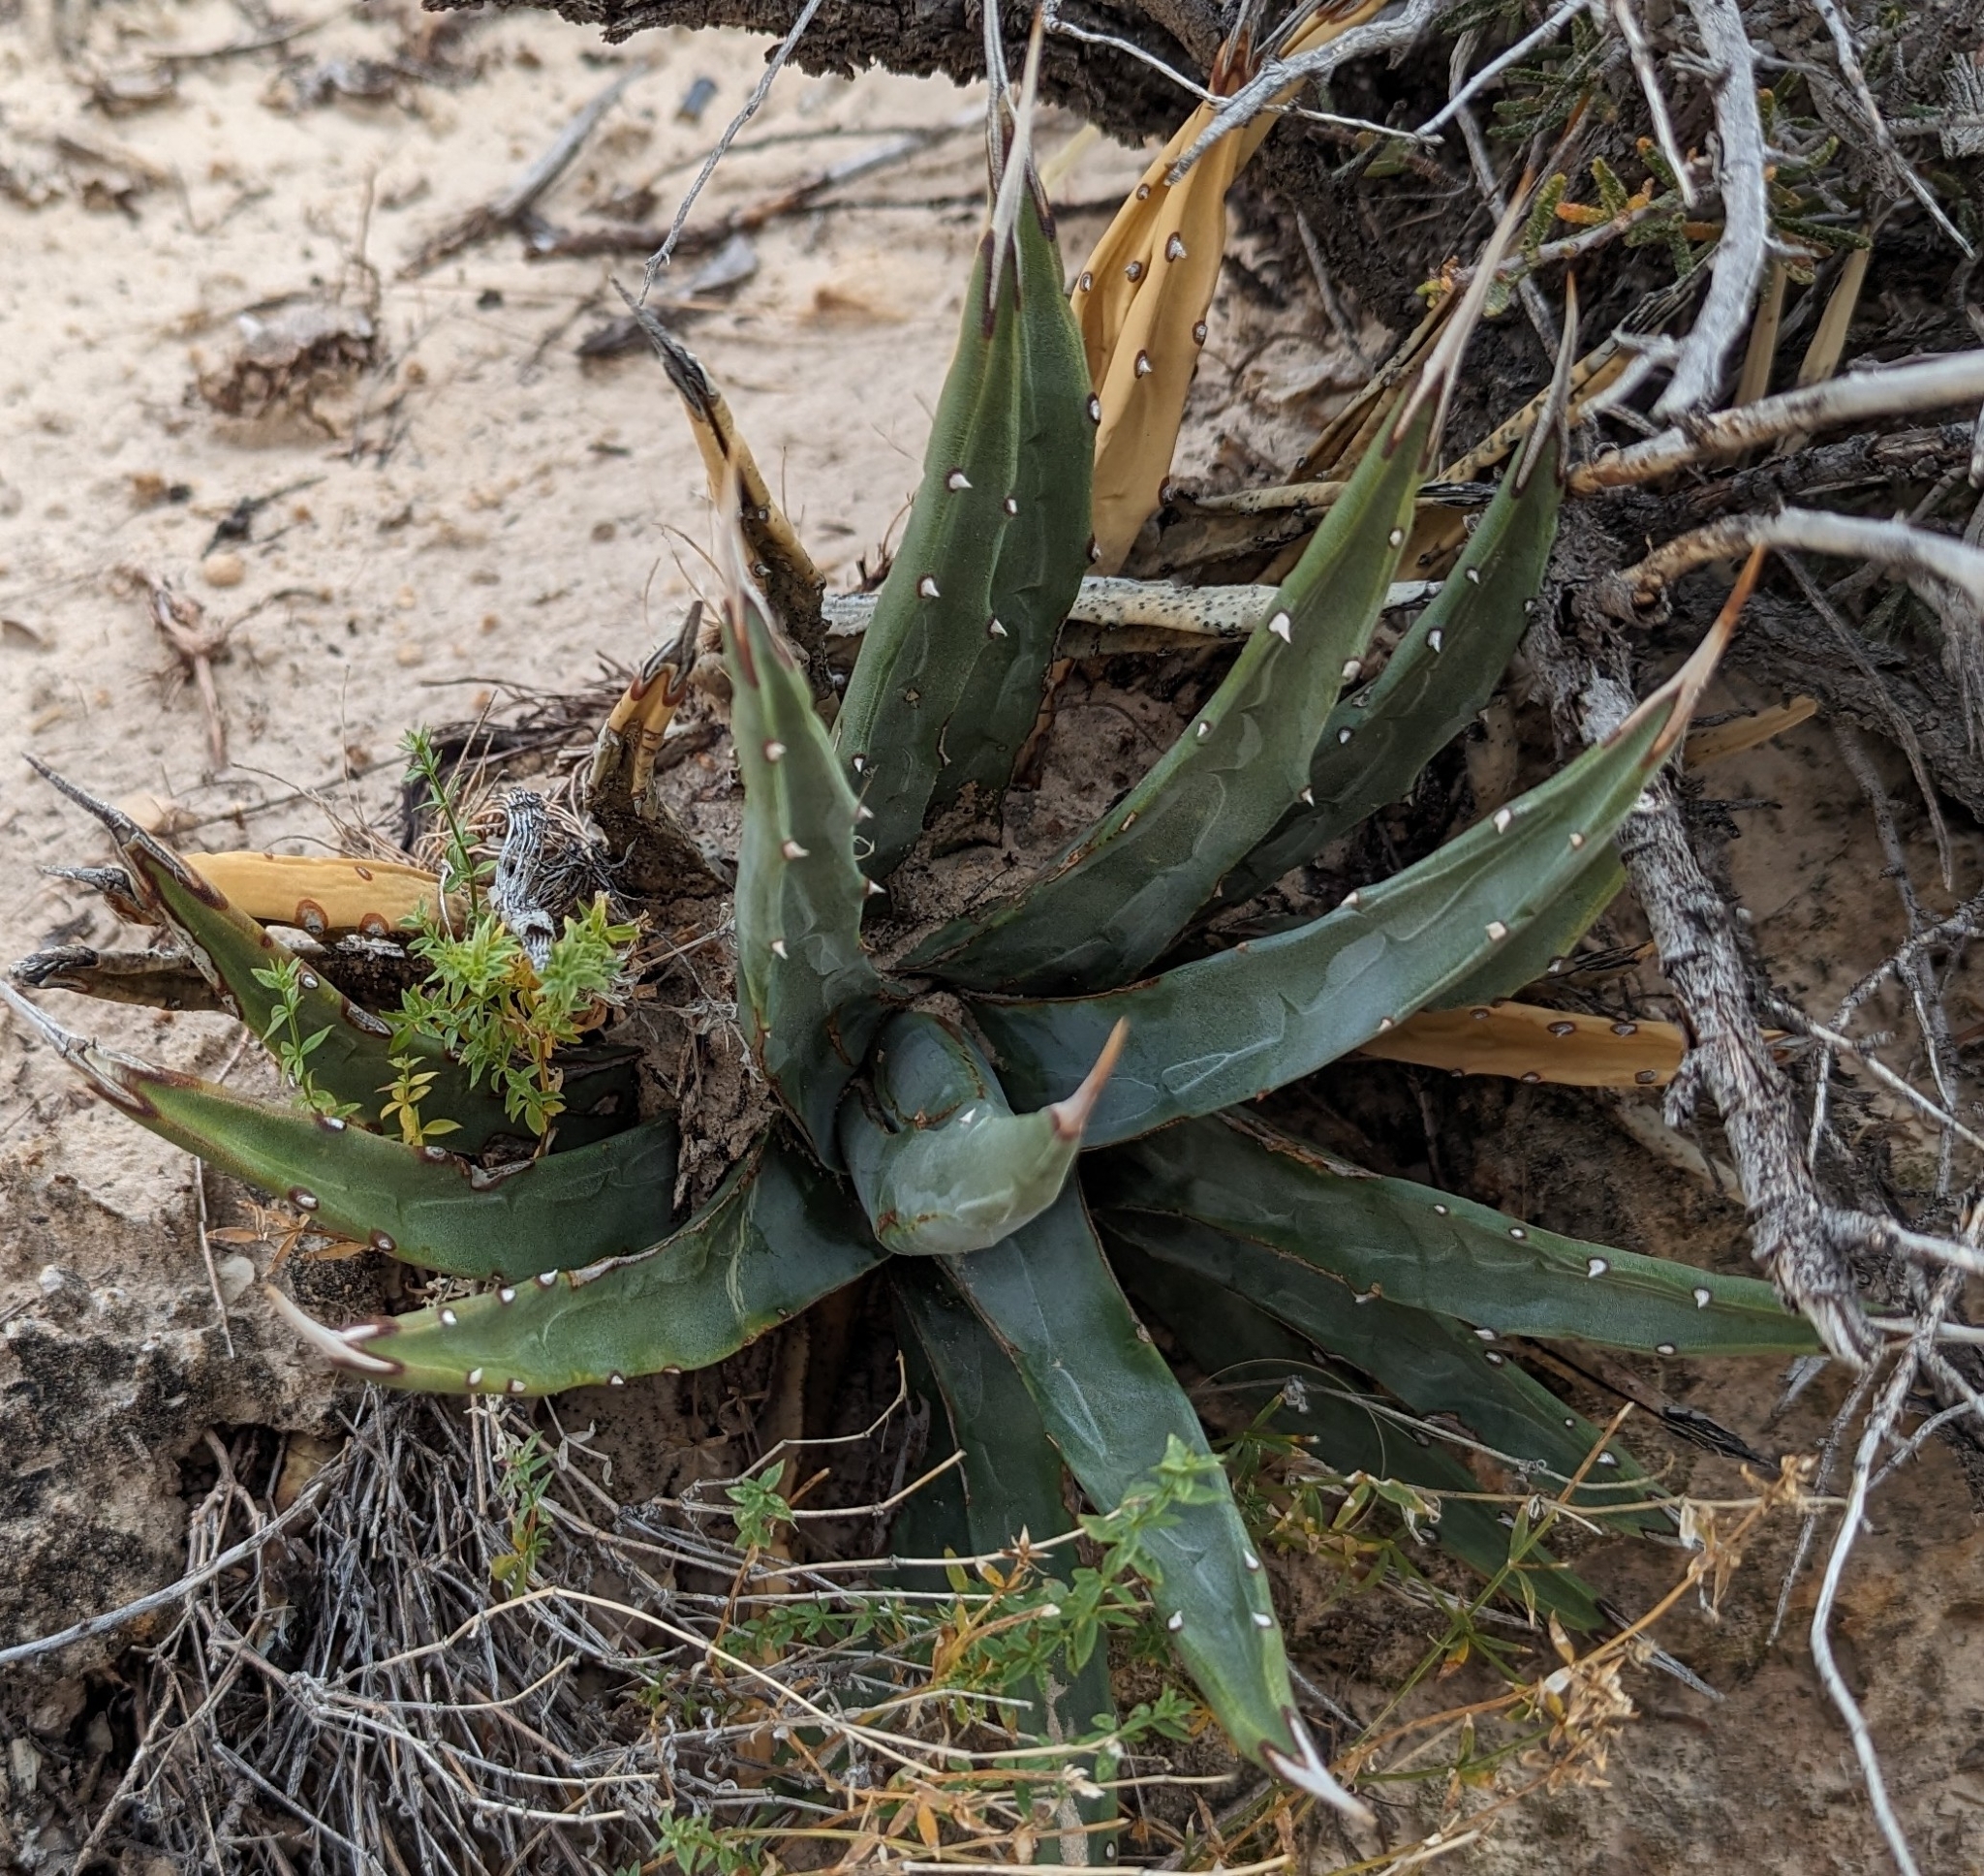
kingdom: Plantae
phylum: Tracheophyta
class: Liliopsida
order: Asparagales
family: Asparagaceae
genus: Agave
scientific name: Agave utahensis
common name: Utah agave
